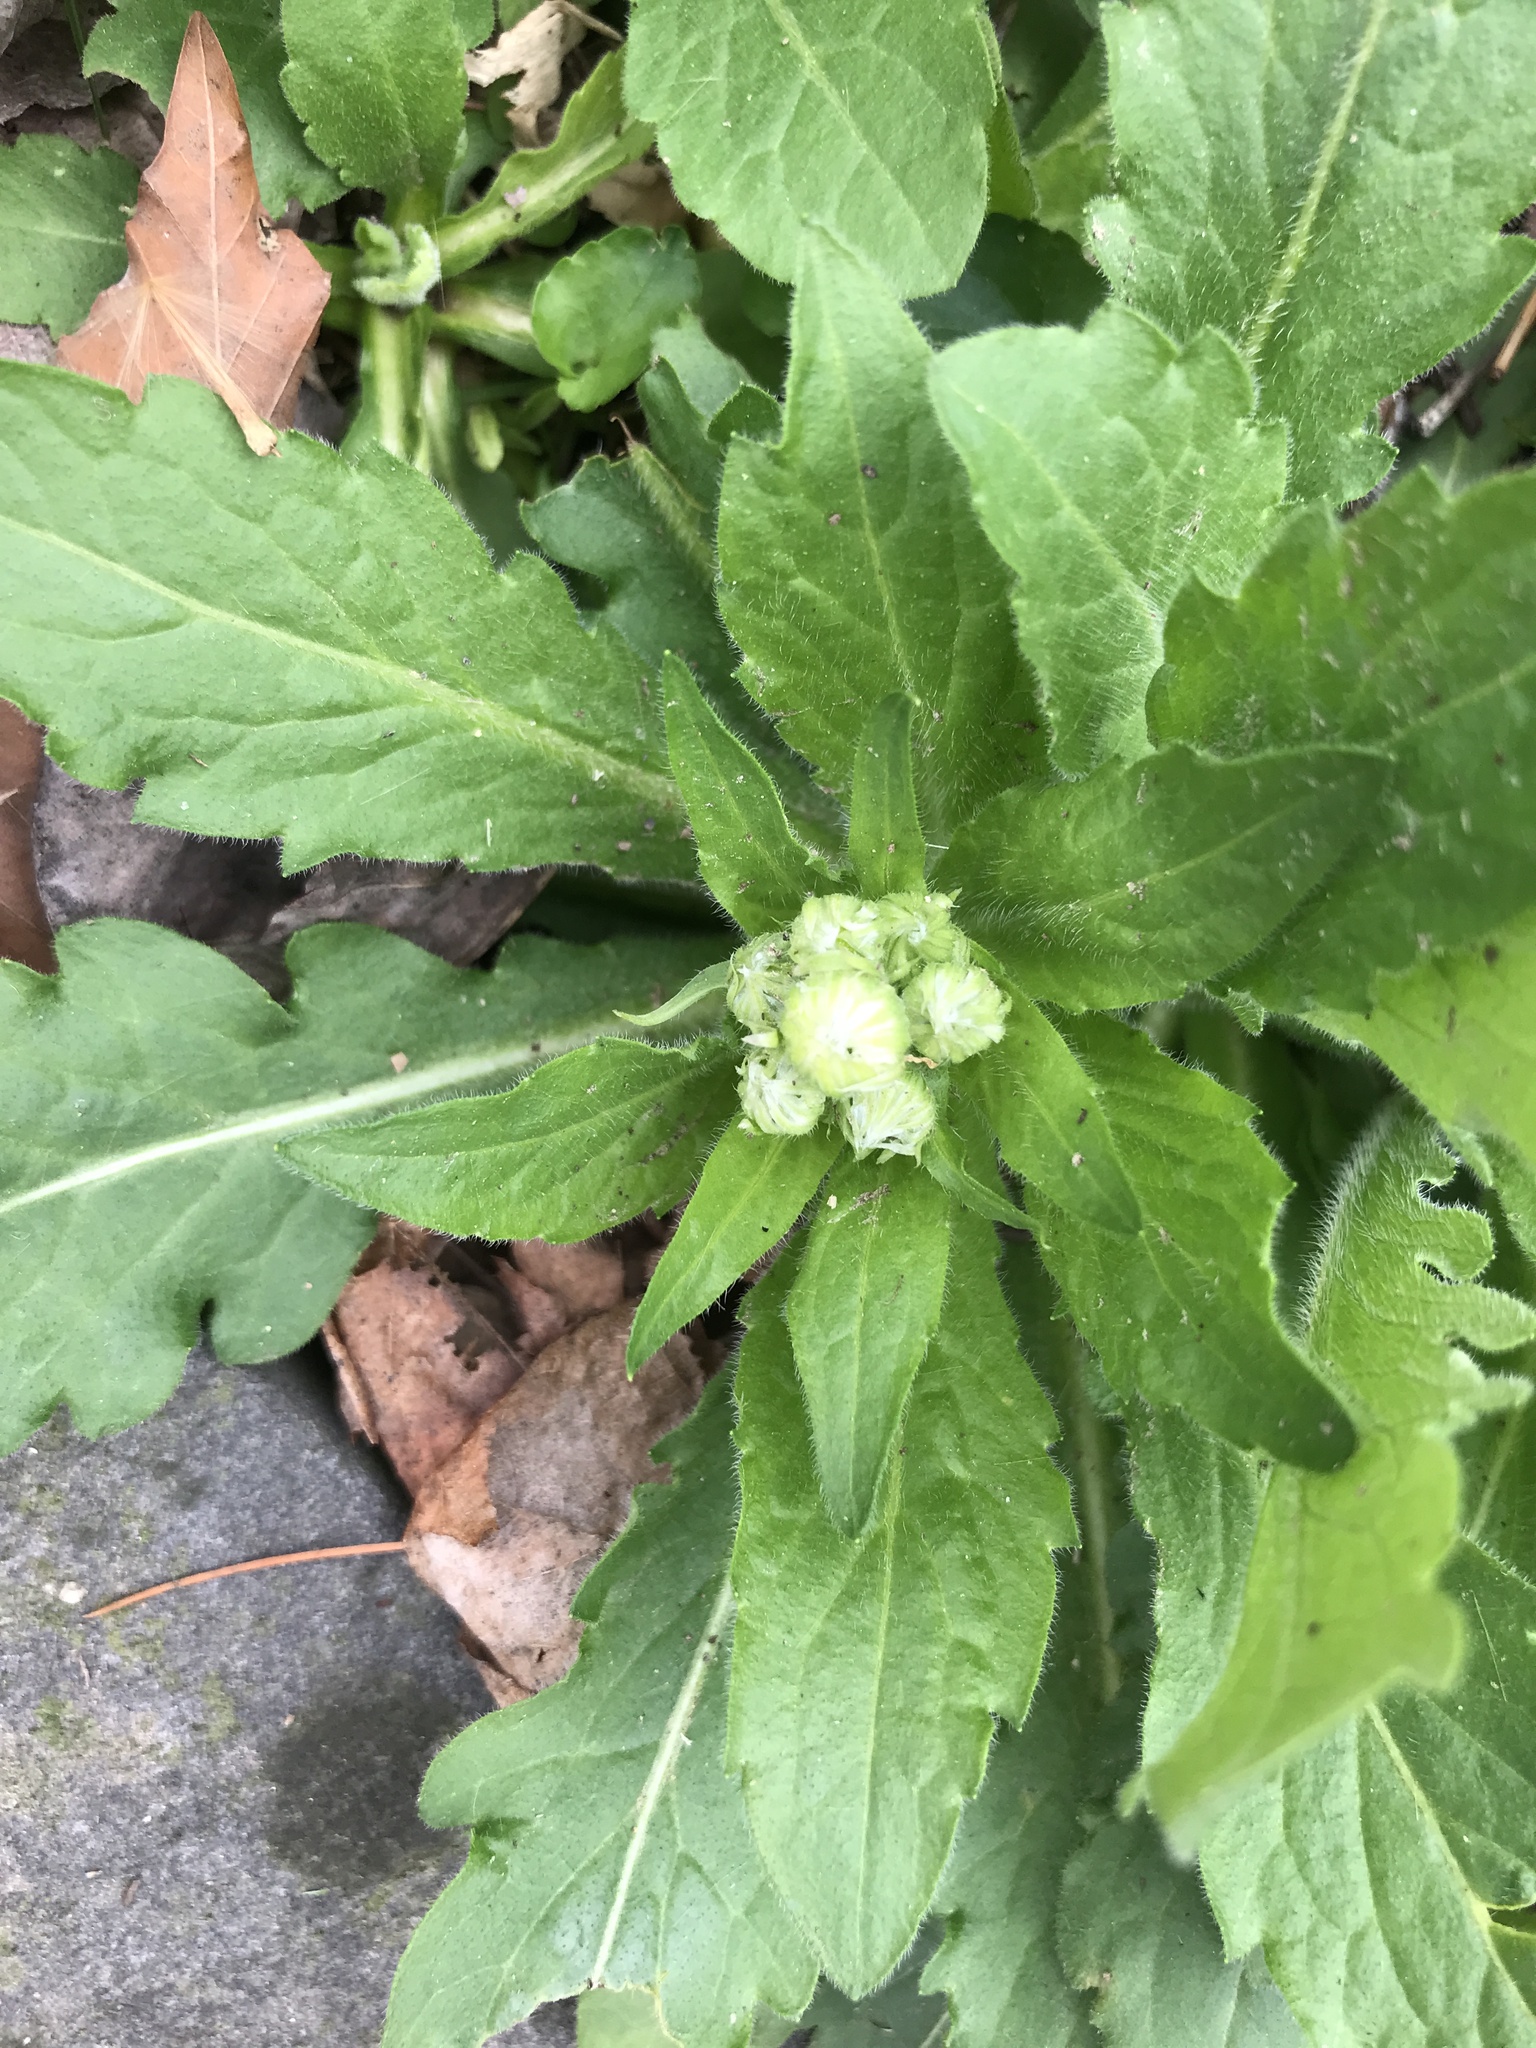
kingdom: Plantae
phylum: Tracheophyta
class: Magnoliopsida
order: Asterales
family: Asteraceae
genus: Erigeron
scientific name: Erigeron philadelphicus
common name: Robin's-plantain
